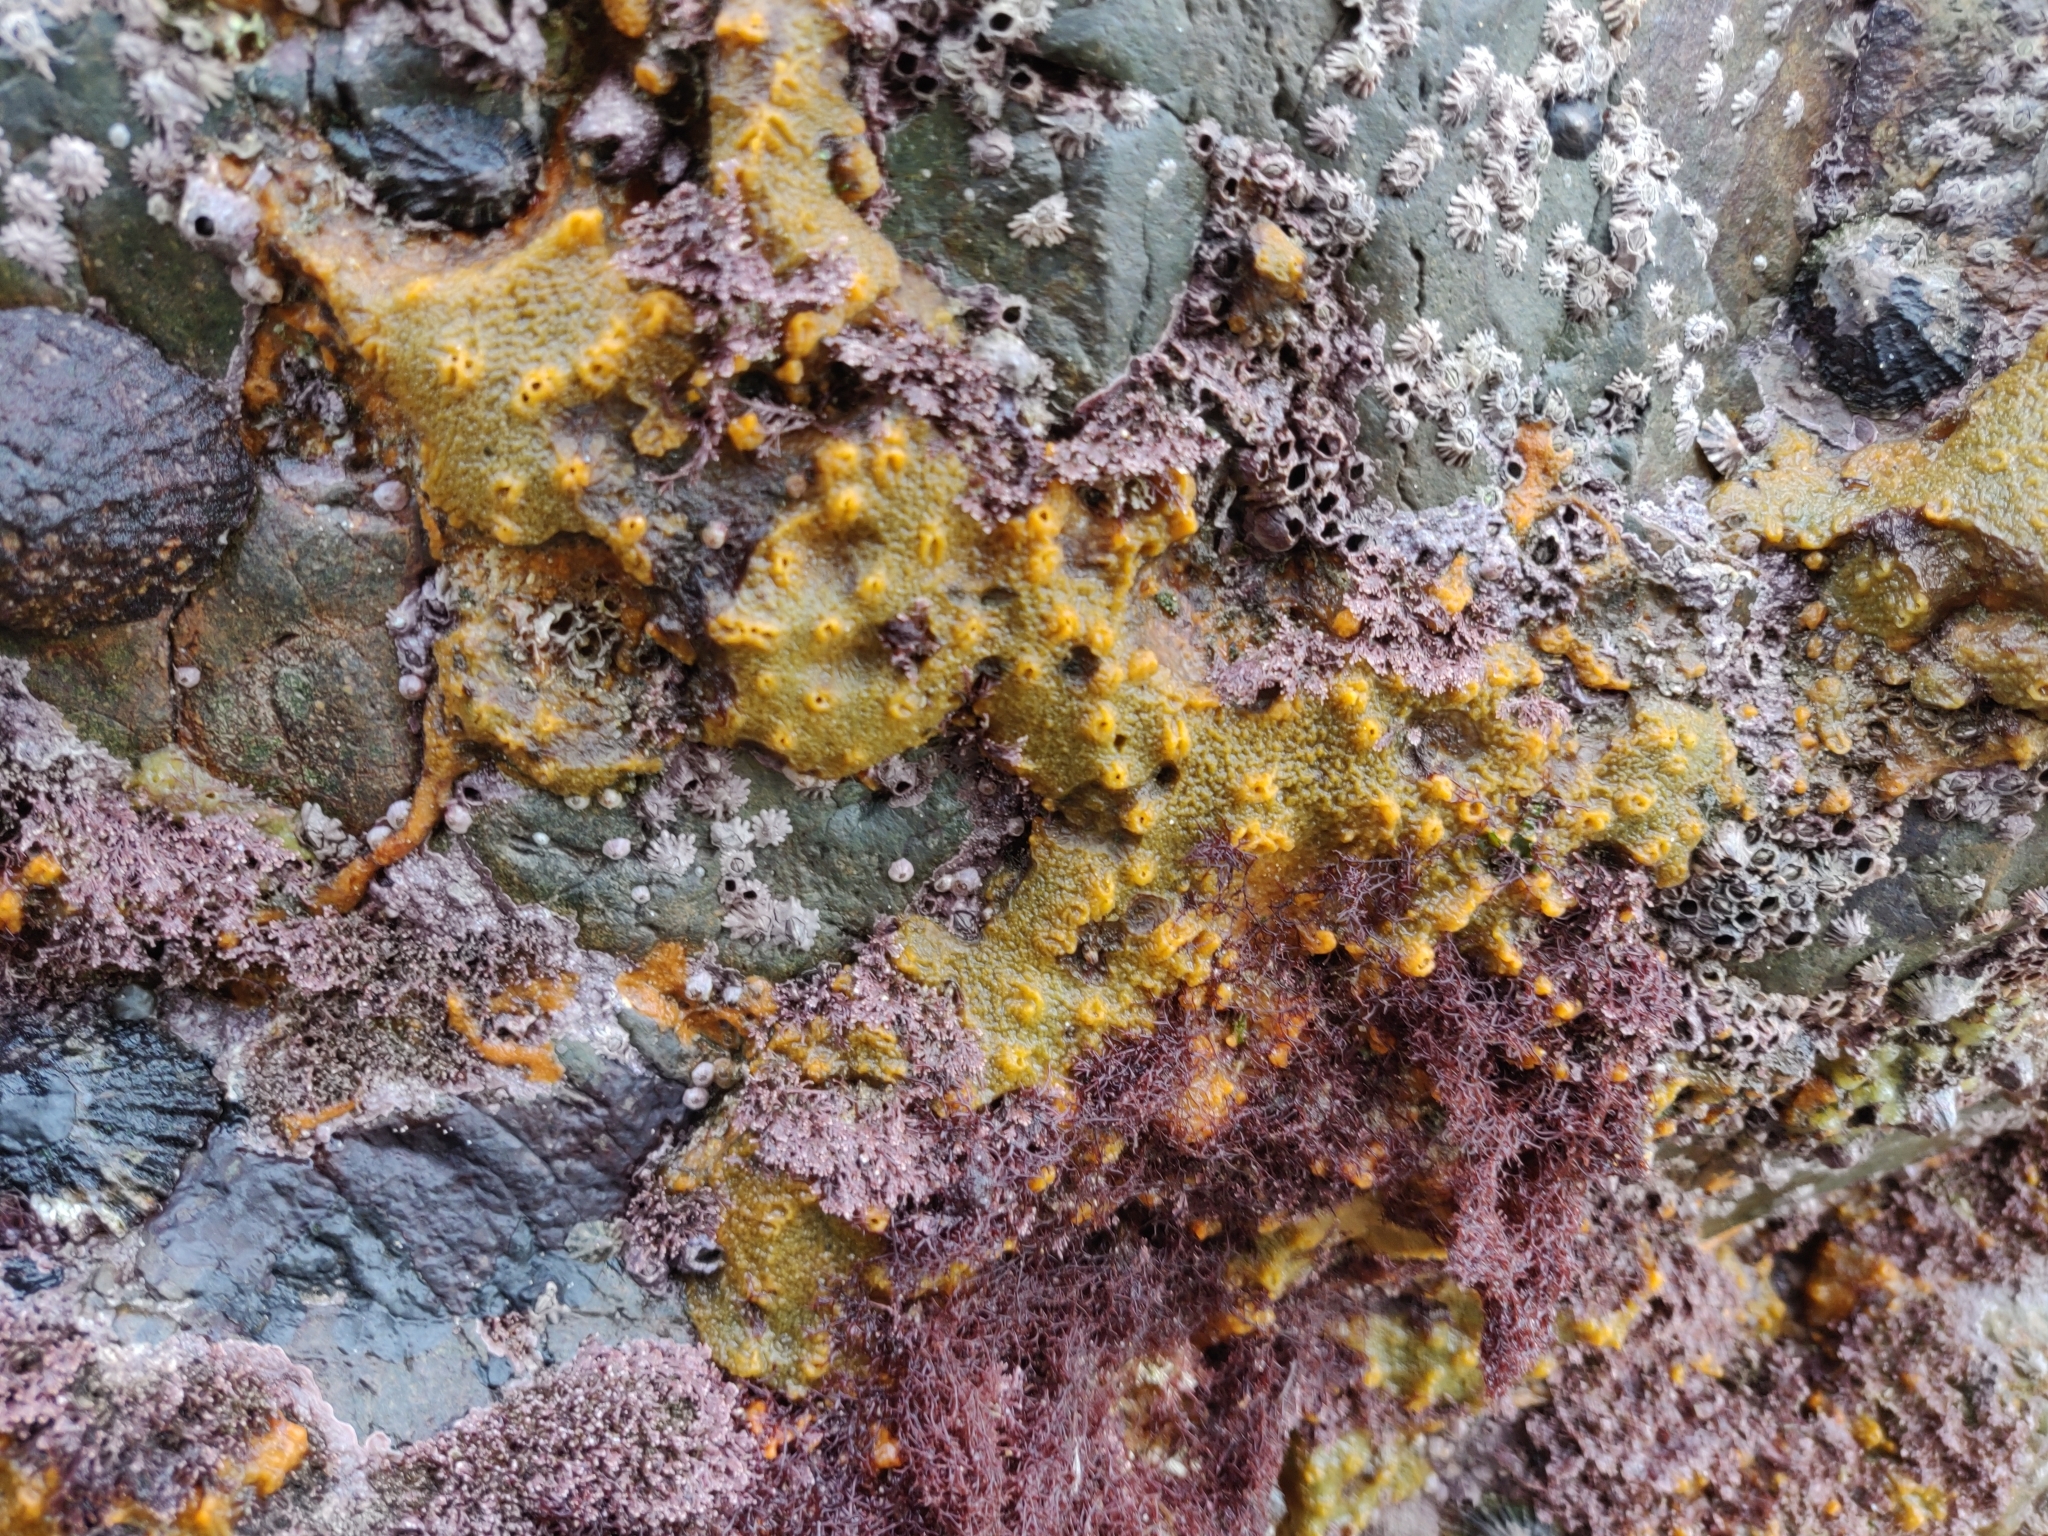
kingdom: Animalia
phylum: Porifera
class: Demospongiae
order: Suberitida
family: Halichondriidae
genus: Hymeniacidon
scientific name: Hymeniacidon perlevis
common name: Crumb-of-bread sponge
